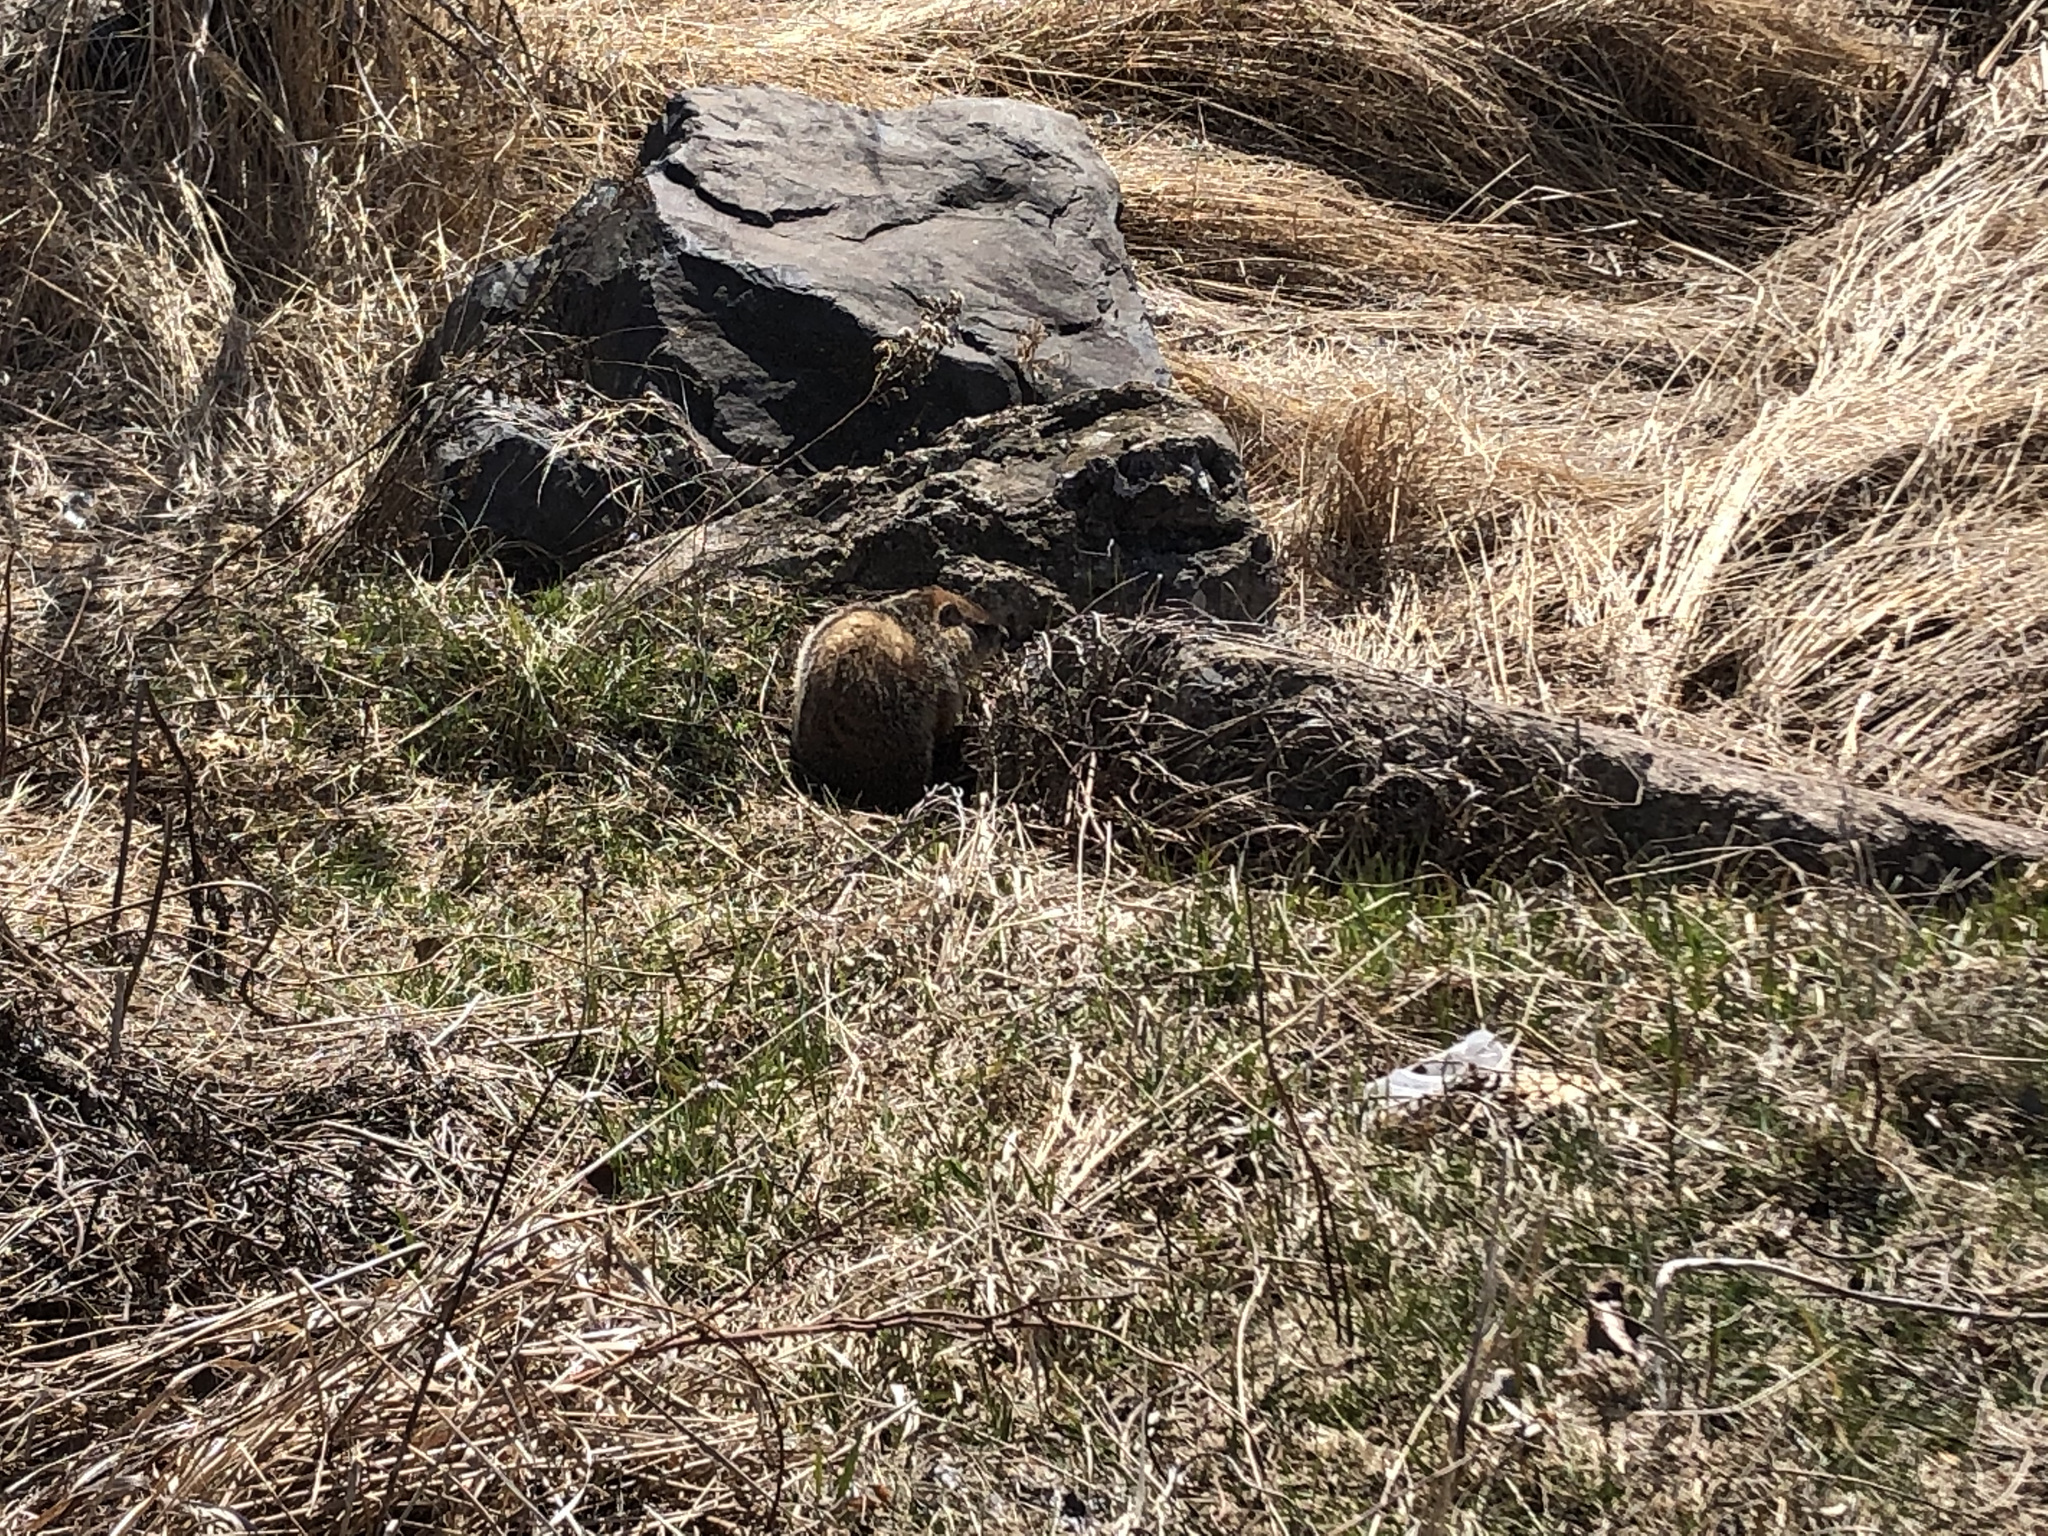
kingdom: Animalia
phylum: Chordata
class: Mammalia
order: Rodentia
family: Sciuridae
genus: Marmota
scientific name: Marmota monax
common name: Groundhog
